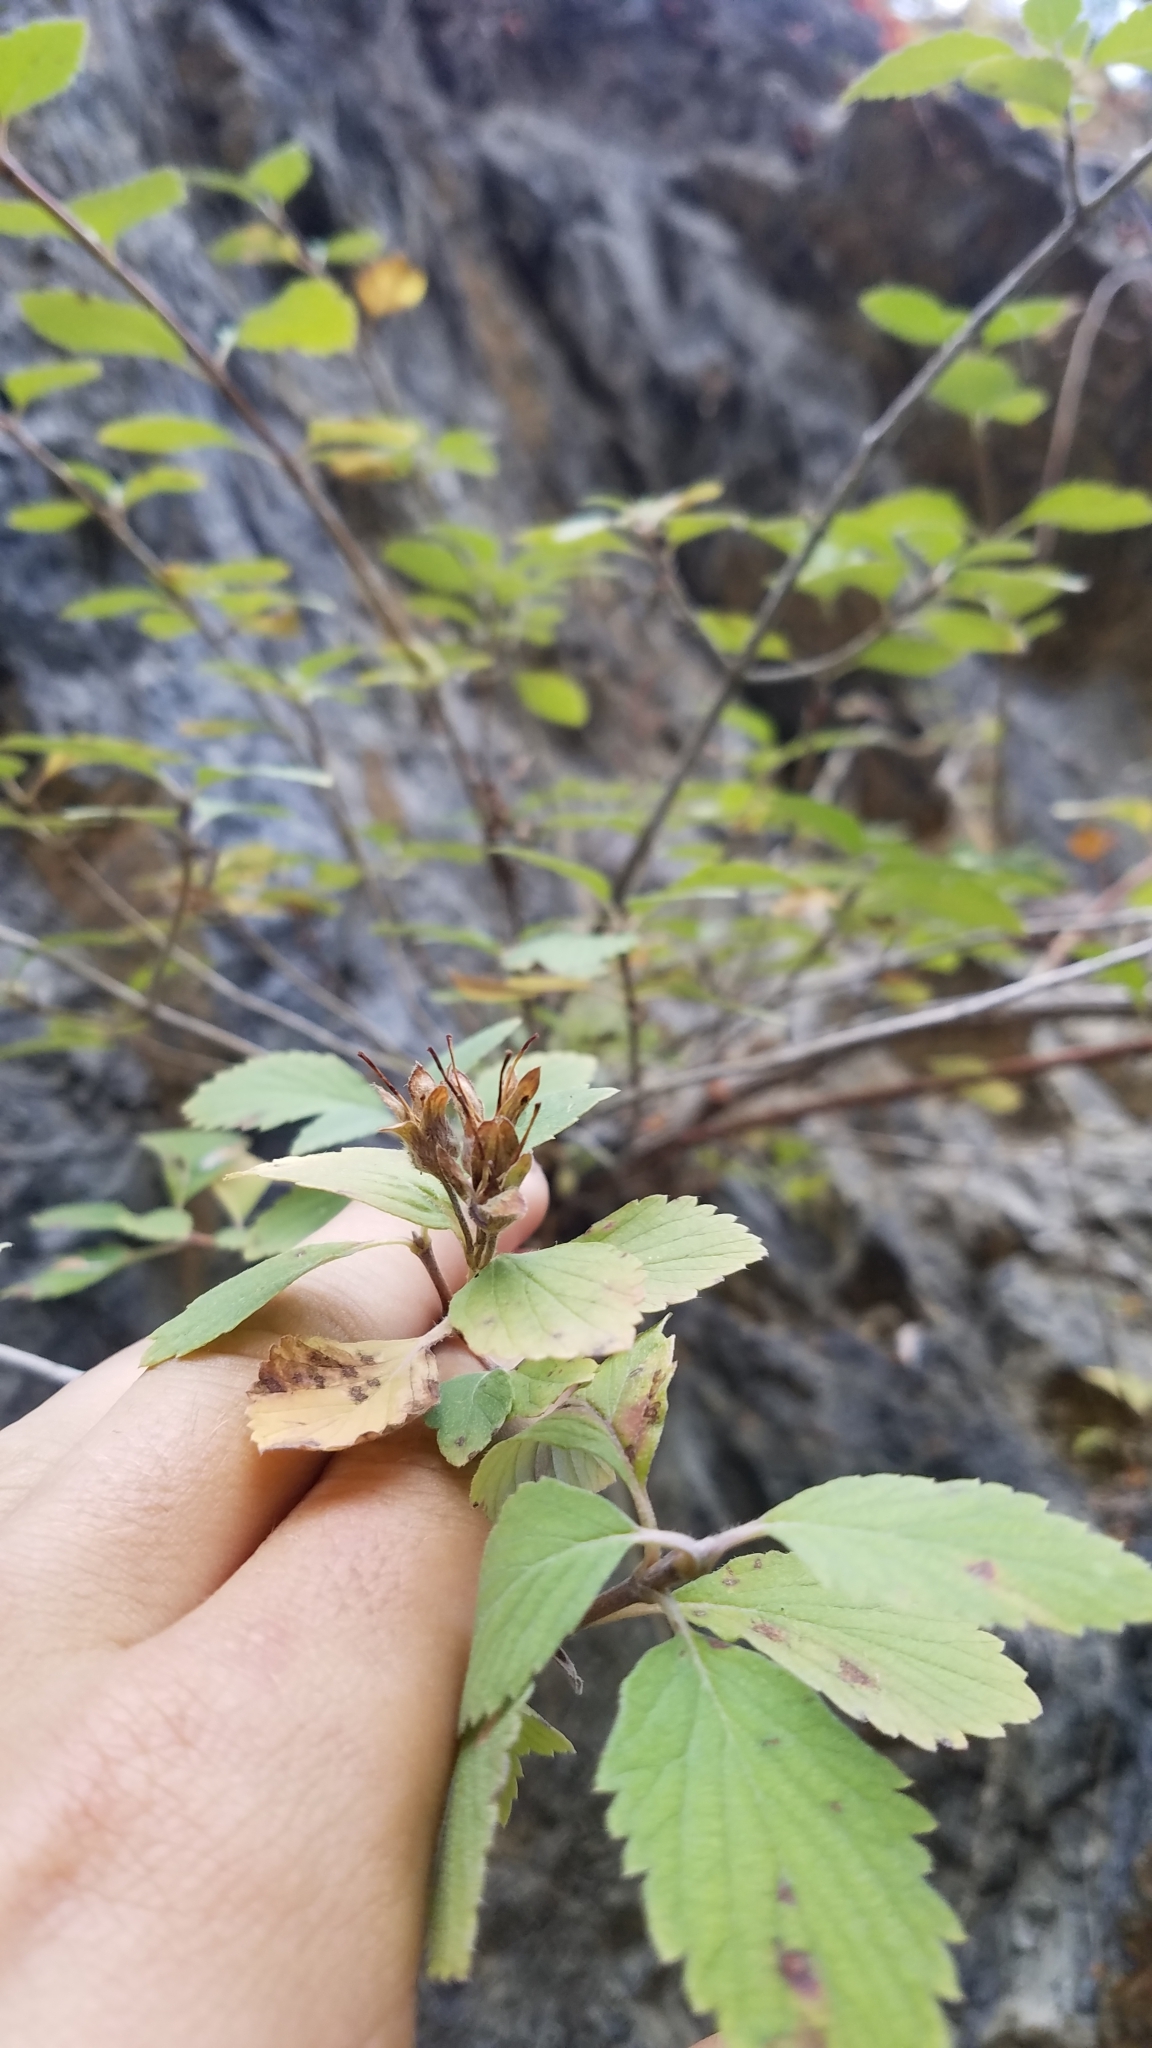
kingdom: Plantae
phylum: Tracheophyta
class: Magnoliopsida
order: Cornales
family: Hydrangeaceae
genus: Jamesia
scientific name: Jamesia americana
